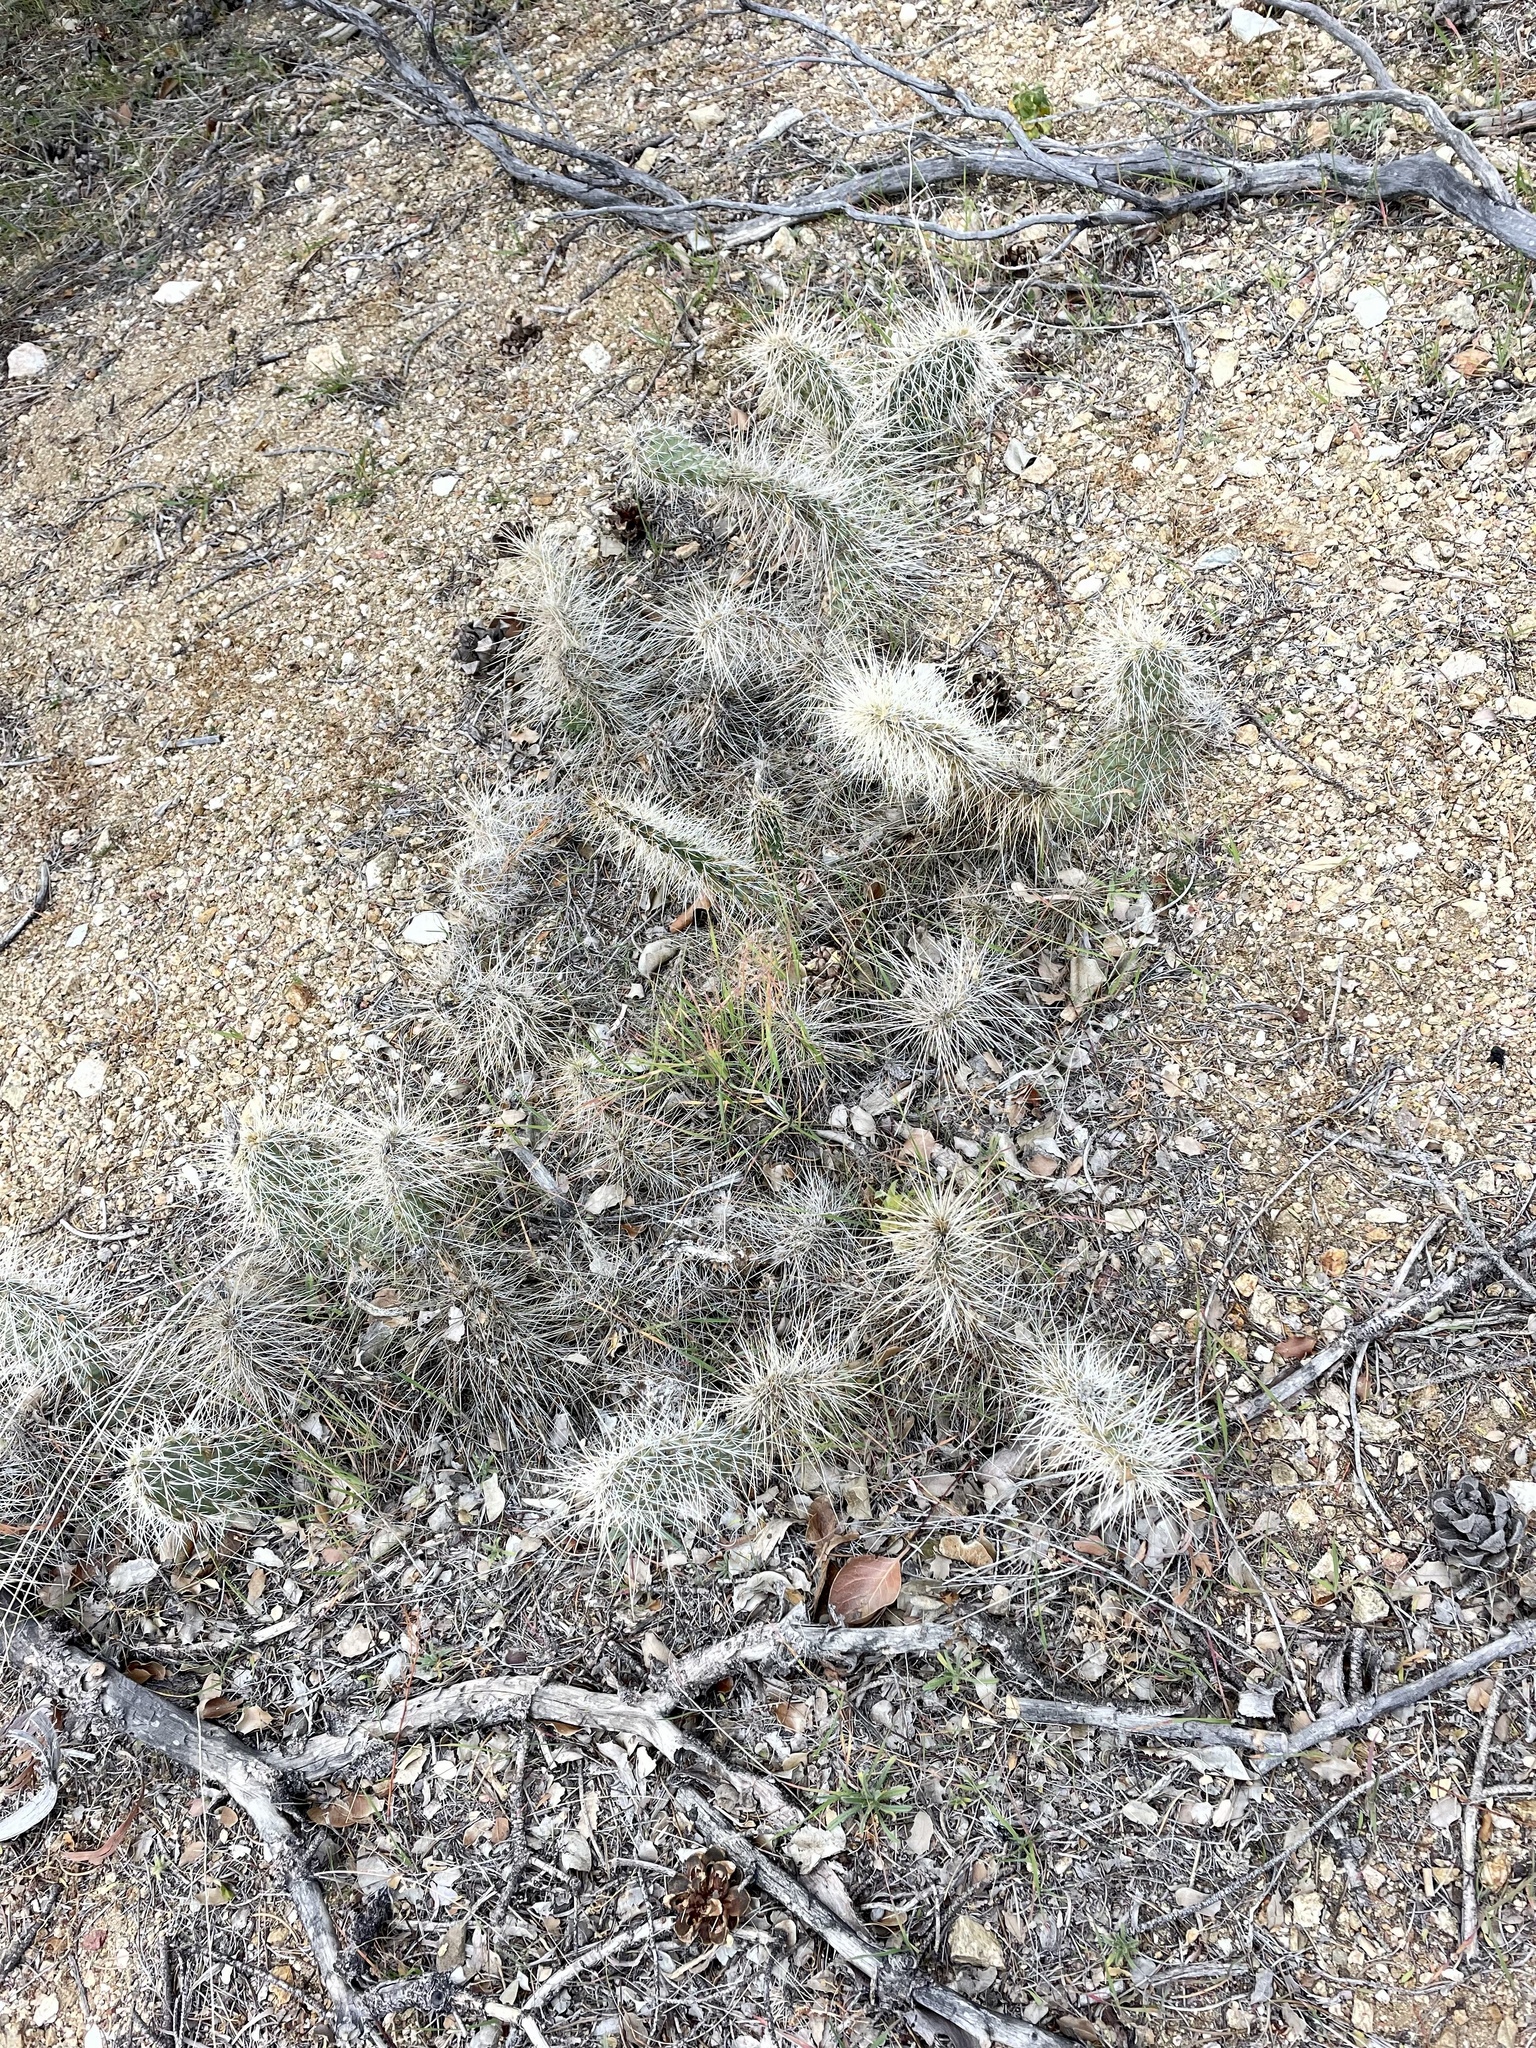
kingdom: Plantae
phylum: Tracheophyta
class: Magnoliopsida
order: Caryophyllales
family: Cactaceae
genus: Opuntia
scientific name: Opuntia polyacantha
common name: Plains prickly-pear
